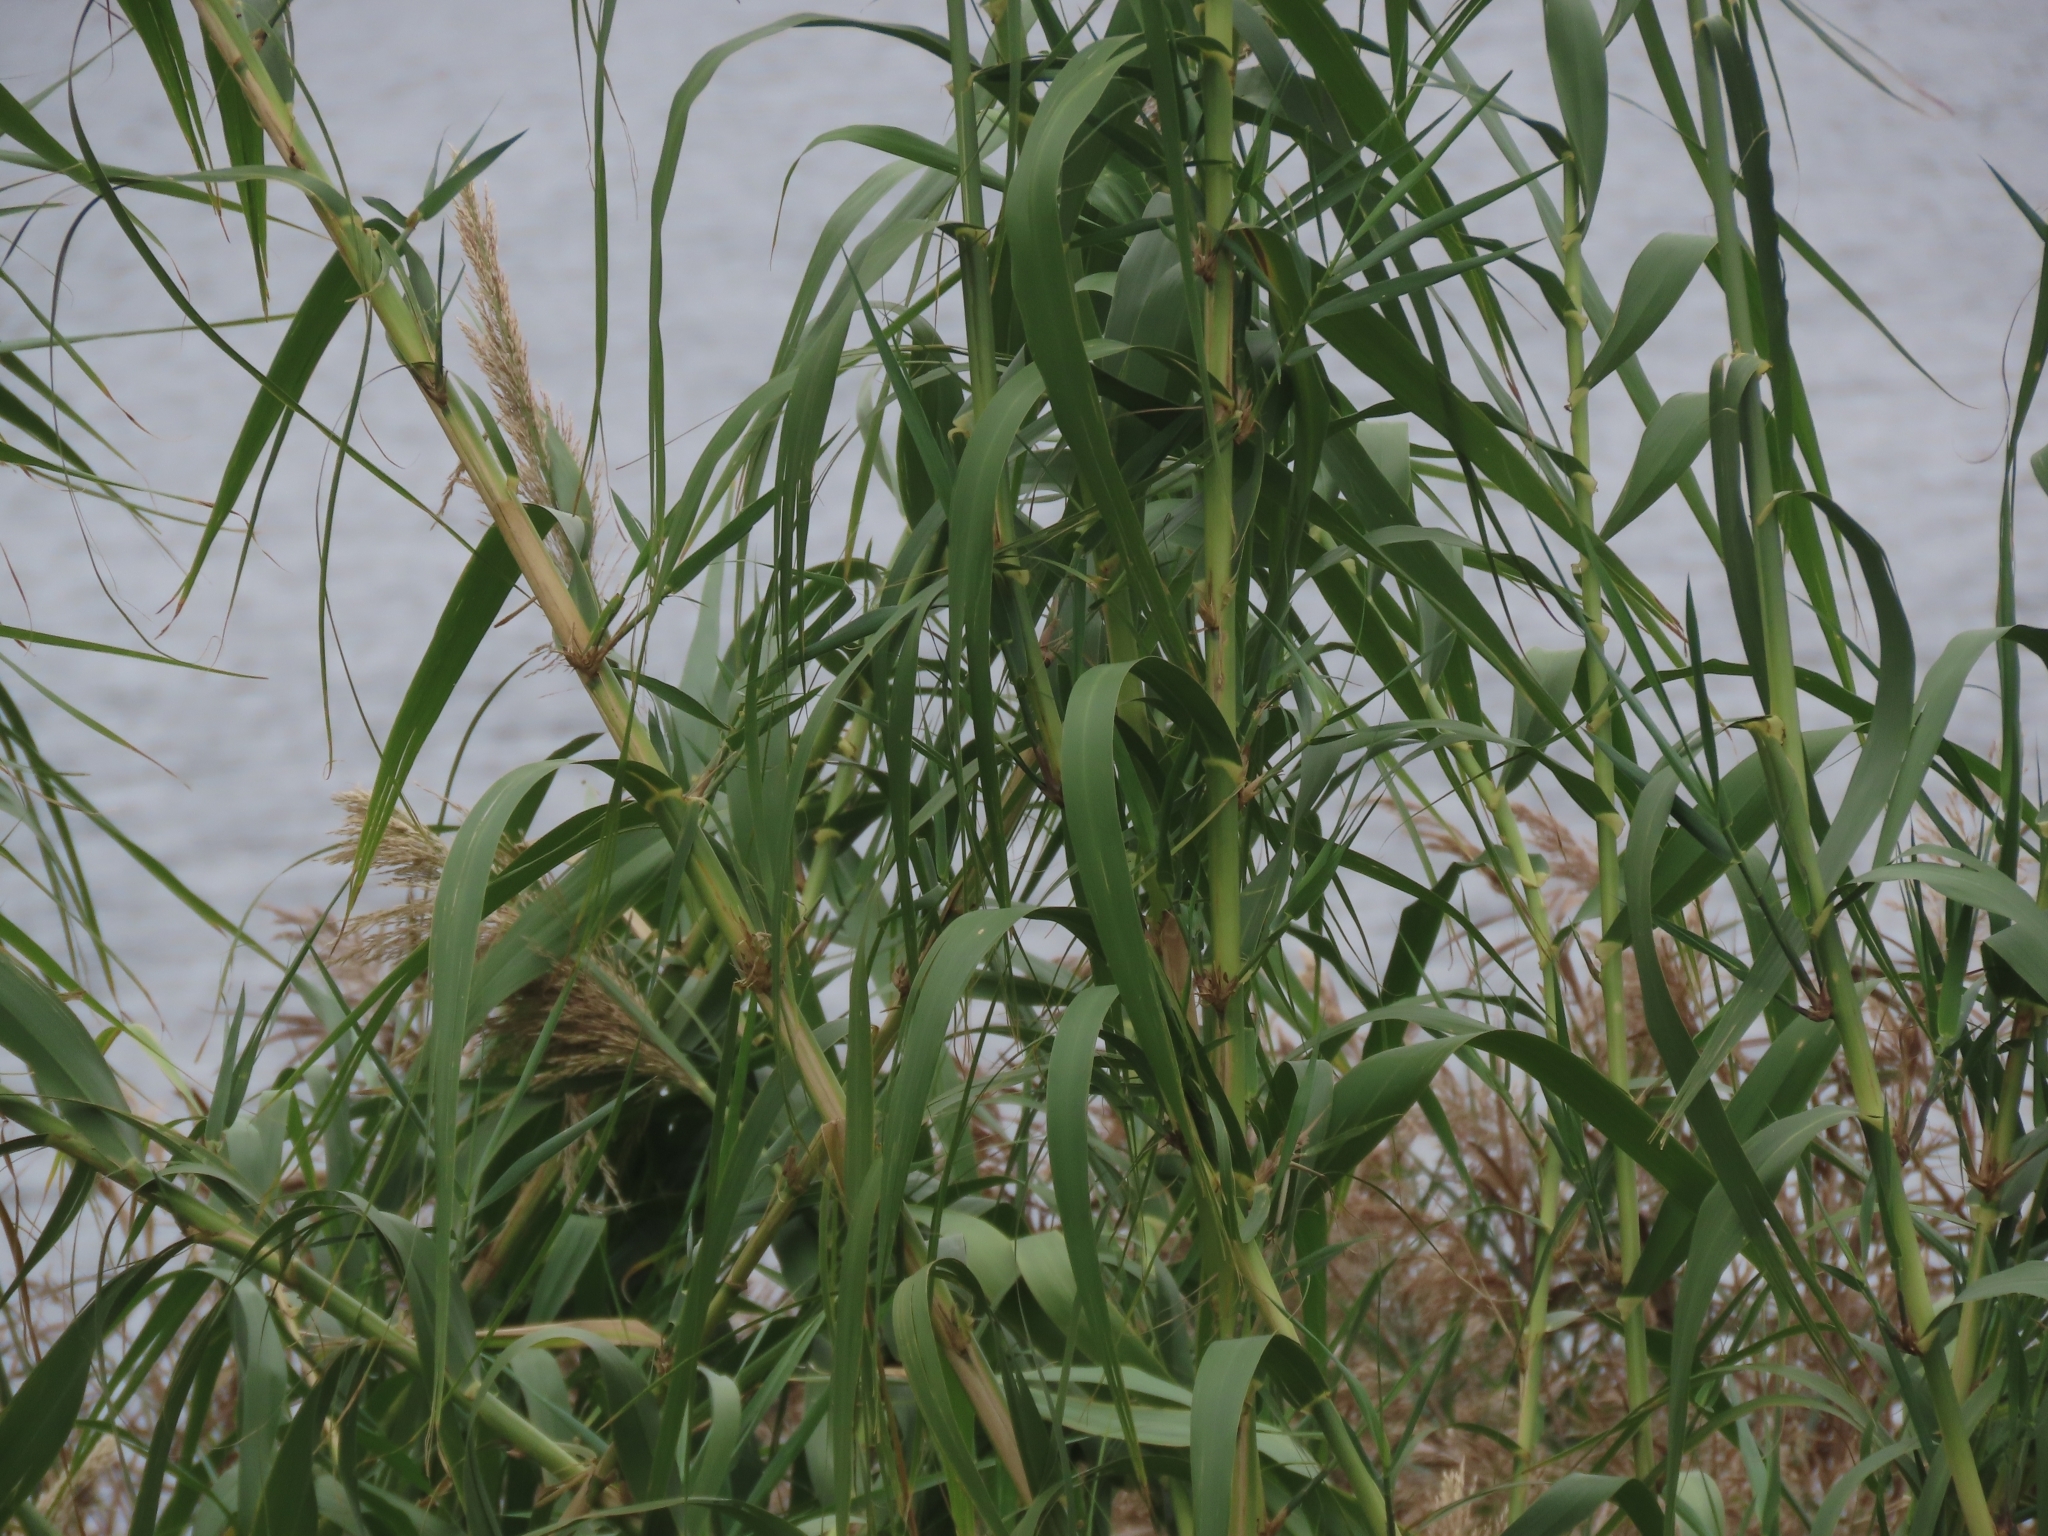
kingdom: Plantae
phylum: Tracheophyta
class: Liliopsida
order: Poales
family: Poaceae
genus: Arundo
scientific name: Arundo donax
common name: Giant reed
